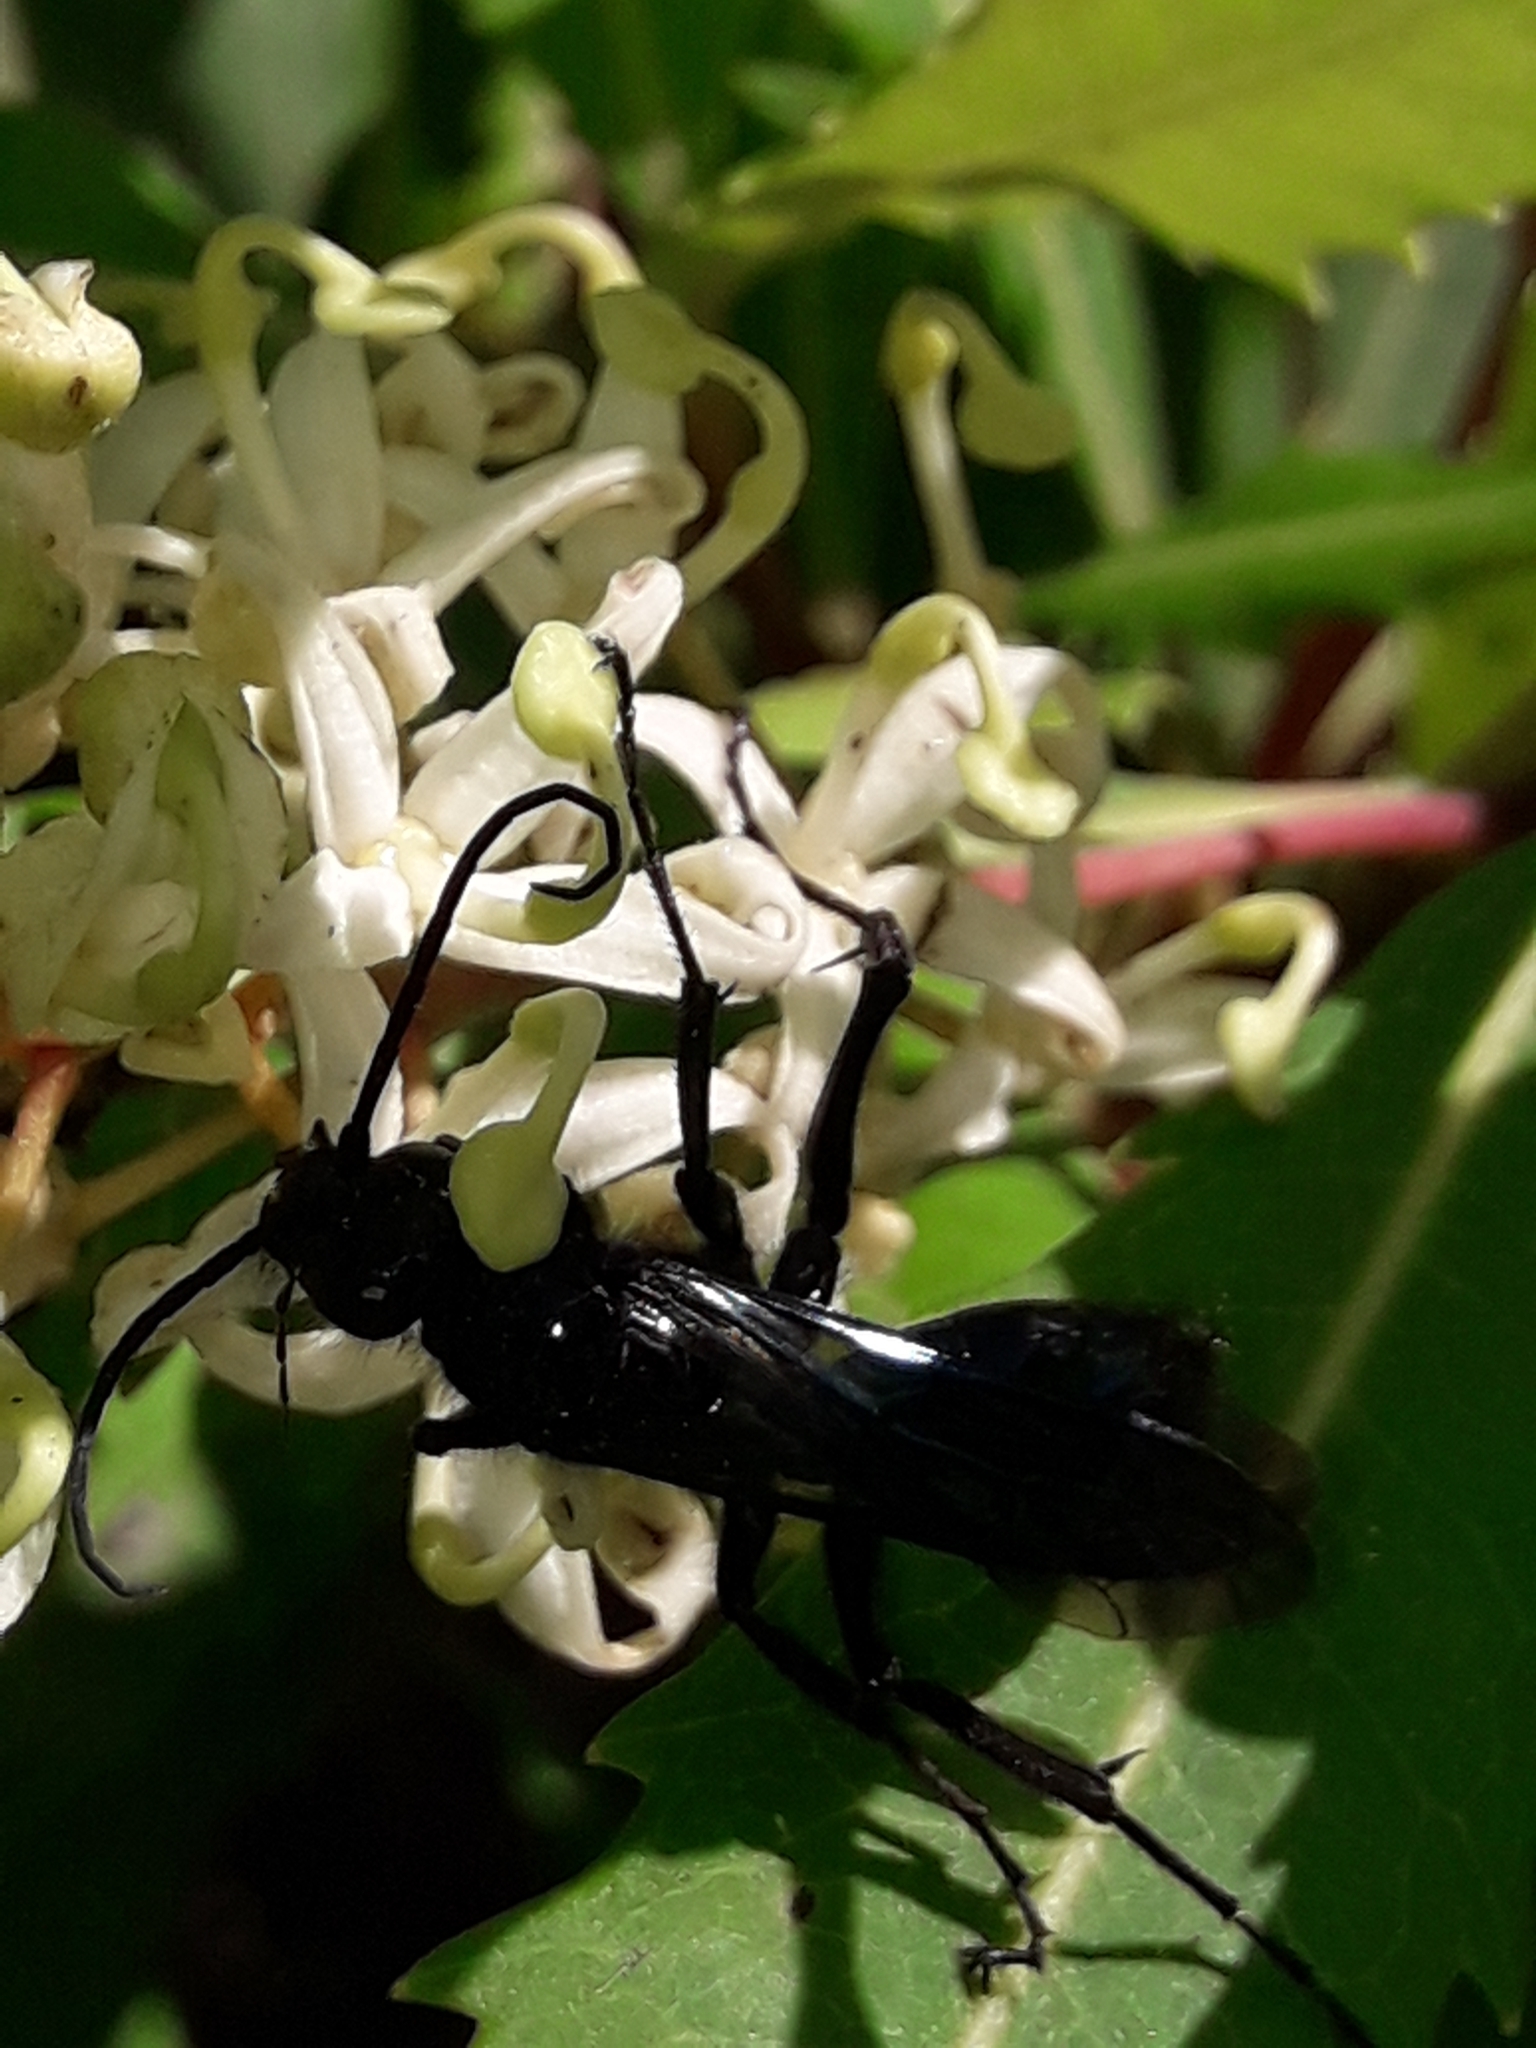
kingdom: Animalia
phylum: Arthropoda
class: Insecta
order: Hymenoptera
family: Pompilidae
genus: Priocnemis
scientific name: Priocnemis monachus
